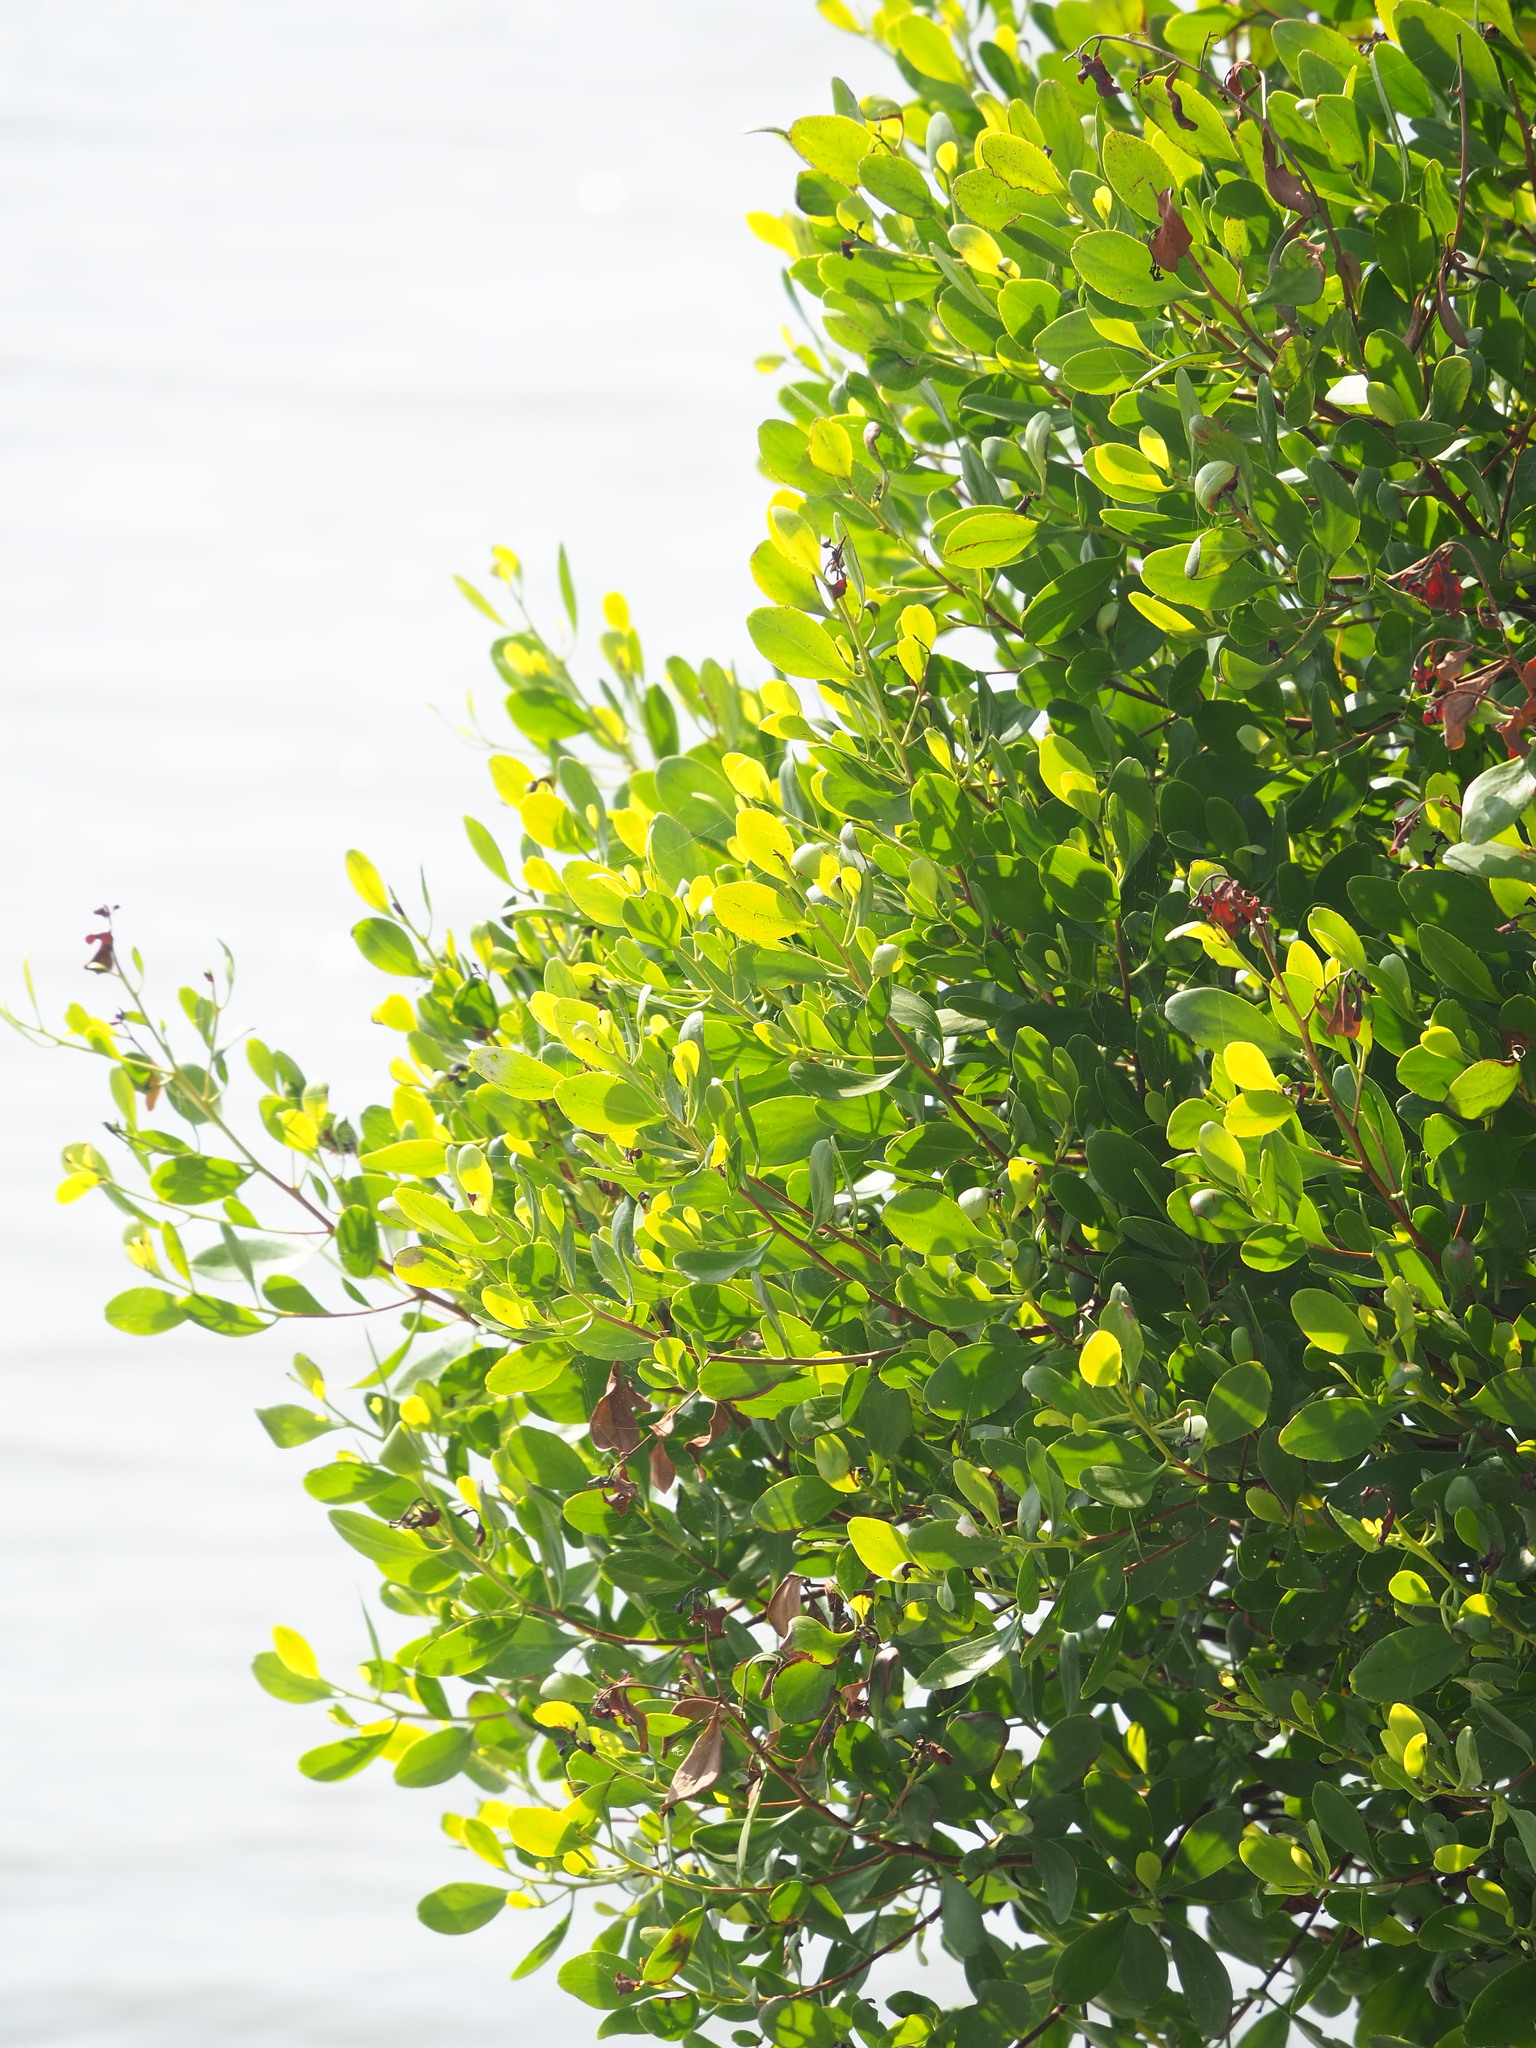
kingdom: Plantae
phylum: Tracheophyta
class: Magnoliopsida
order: Myrtales
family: Combretaceae
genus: Lumnitzera
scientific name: Lumnitzera racemosa
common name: White-flowered black mangrove
